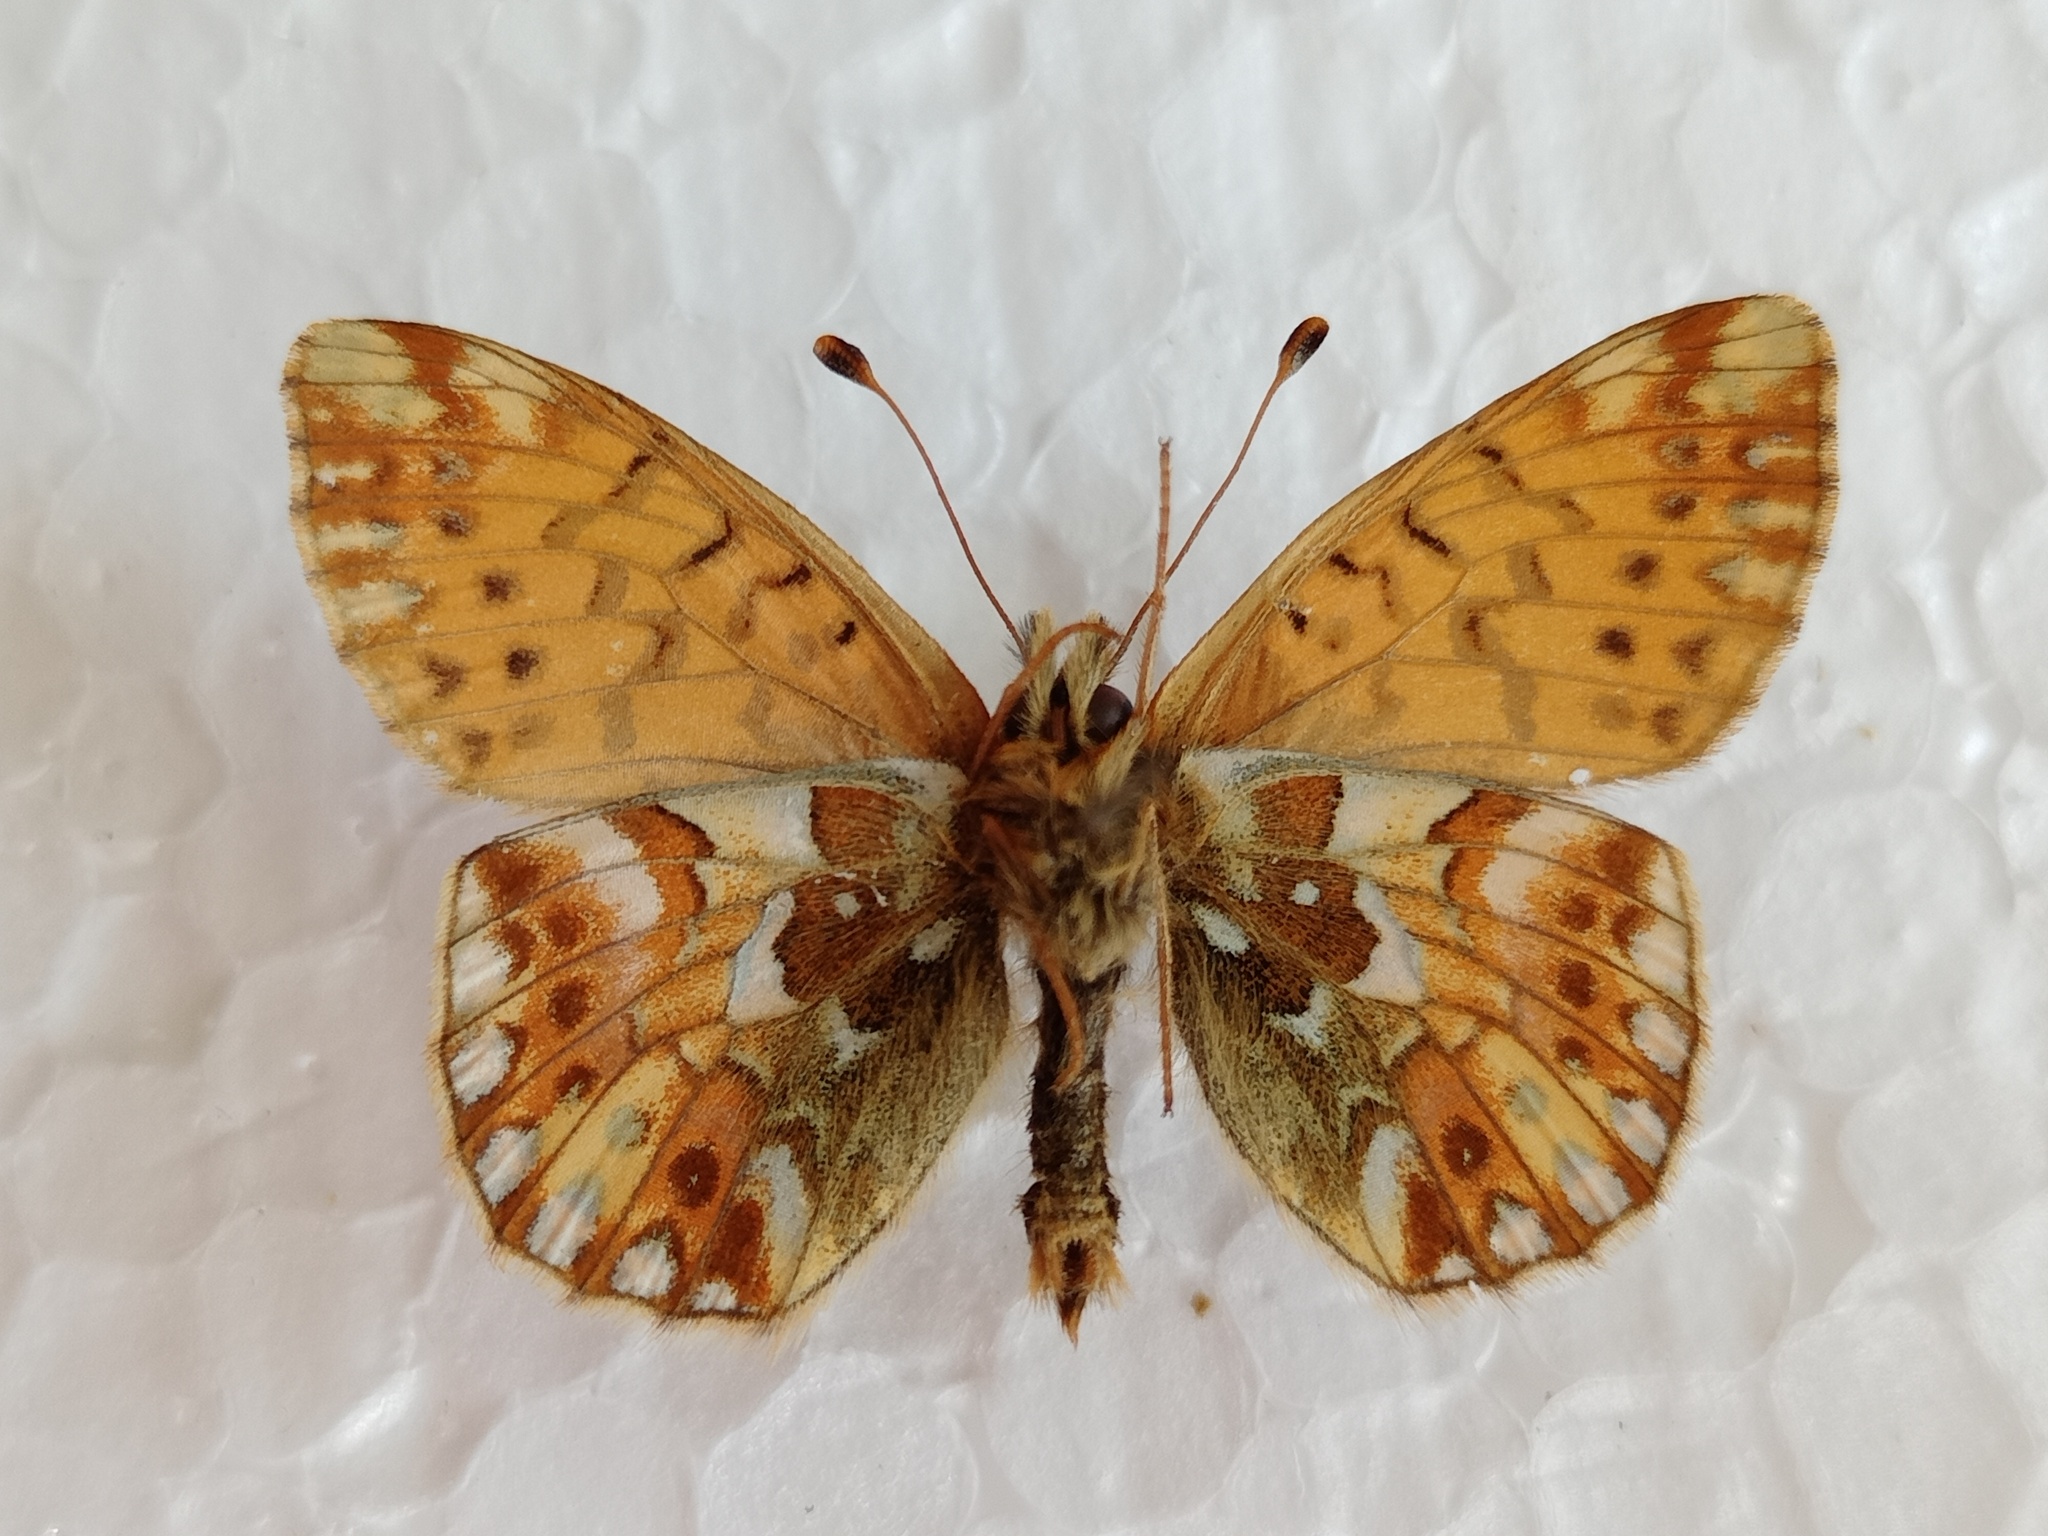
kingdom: Animalia
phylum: Arthropoda
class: Insecta
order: Lepidoptera
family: Nymphalidae
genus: Boloria
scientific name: Boloria pales
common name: Shepherd's fritillary
